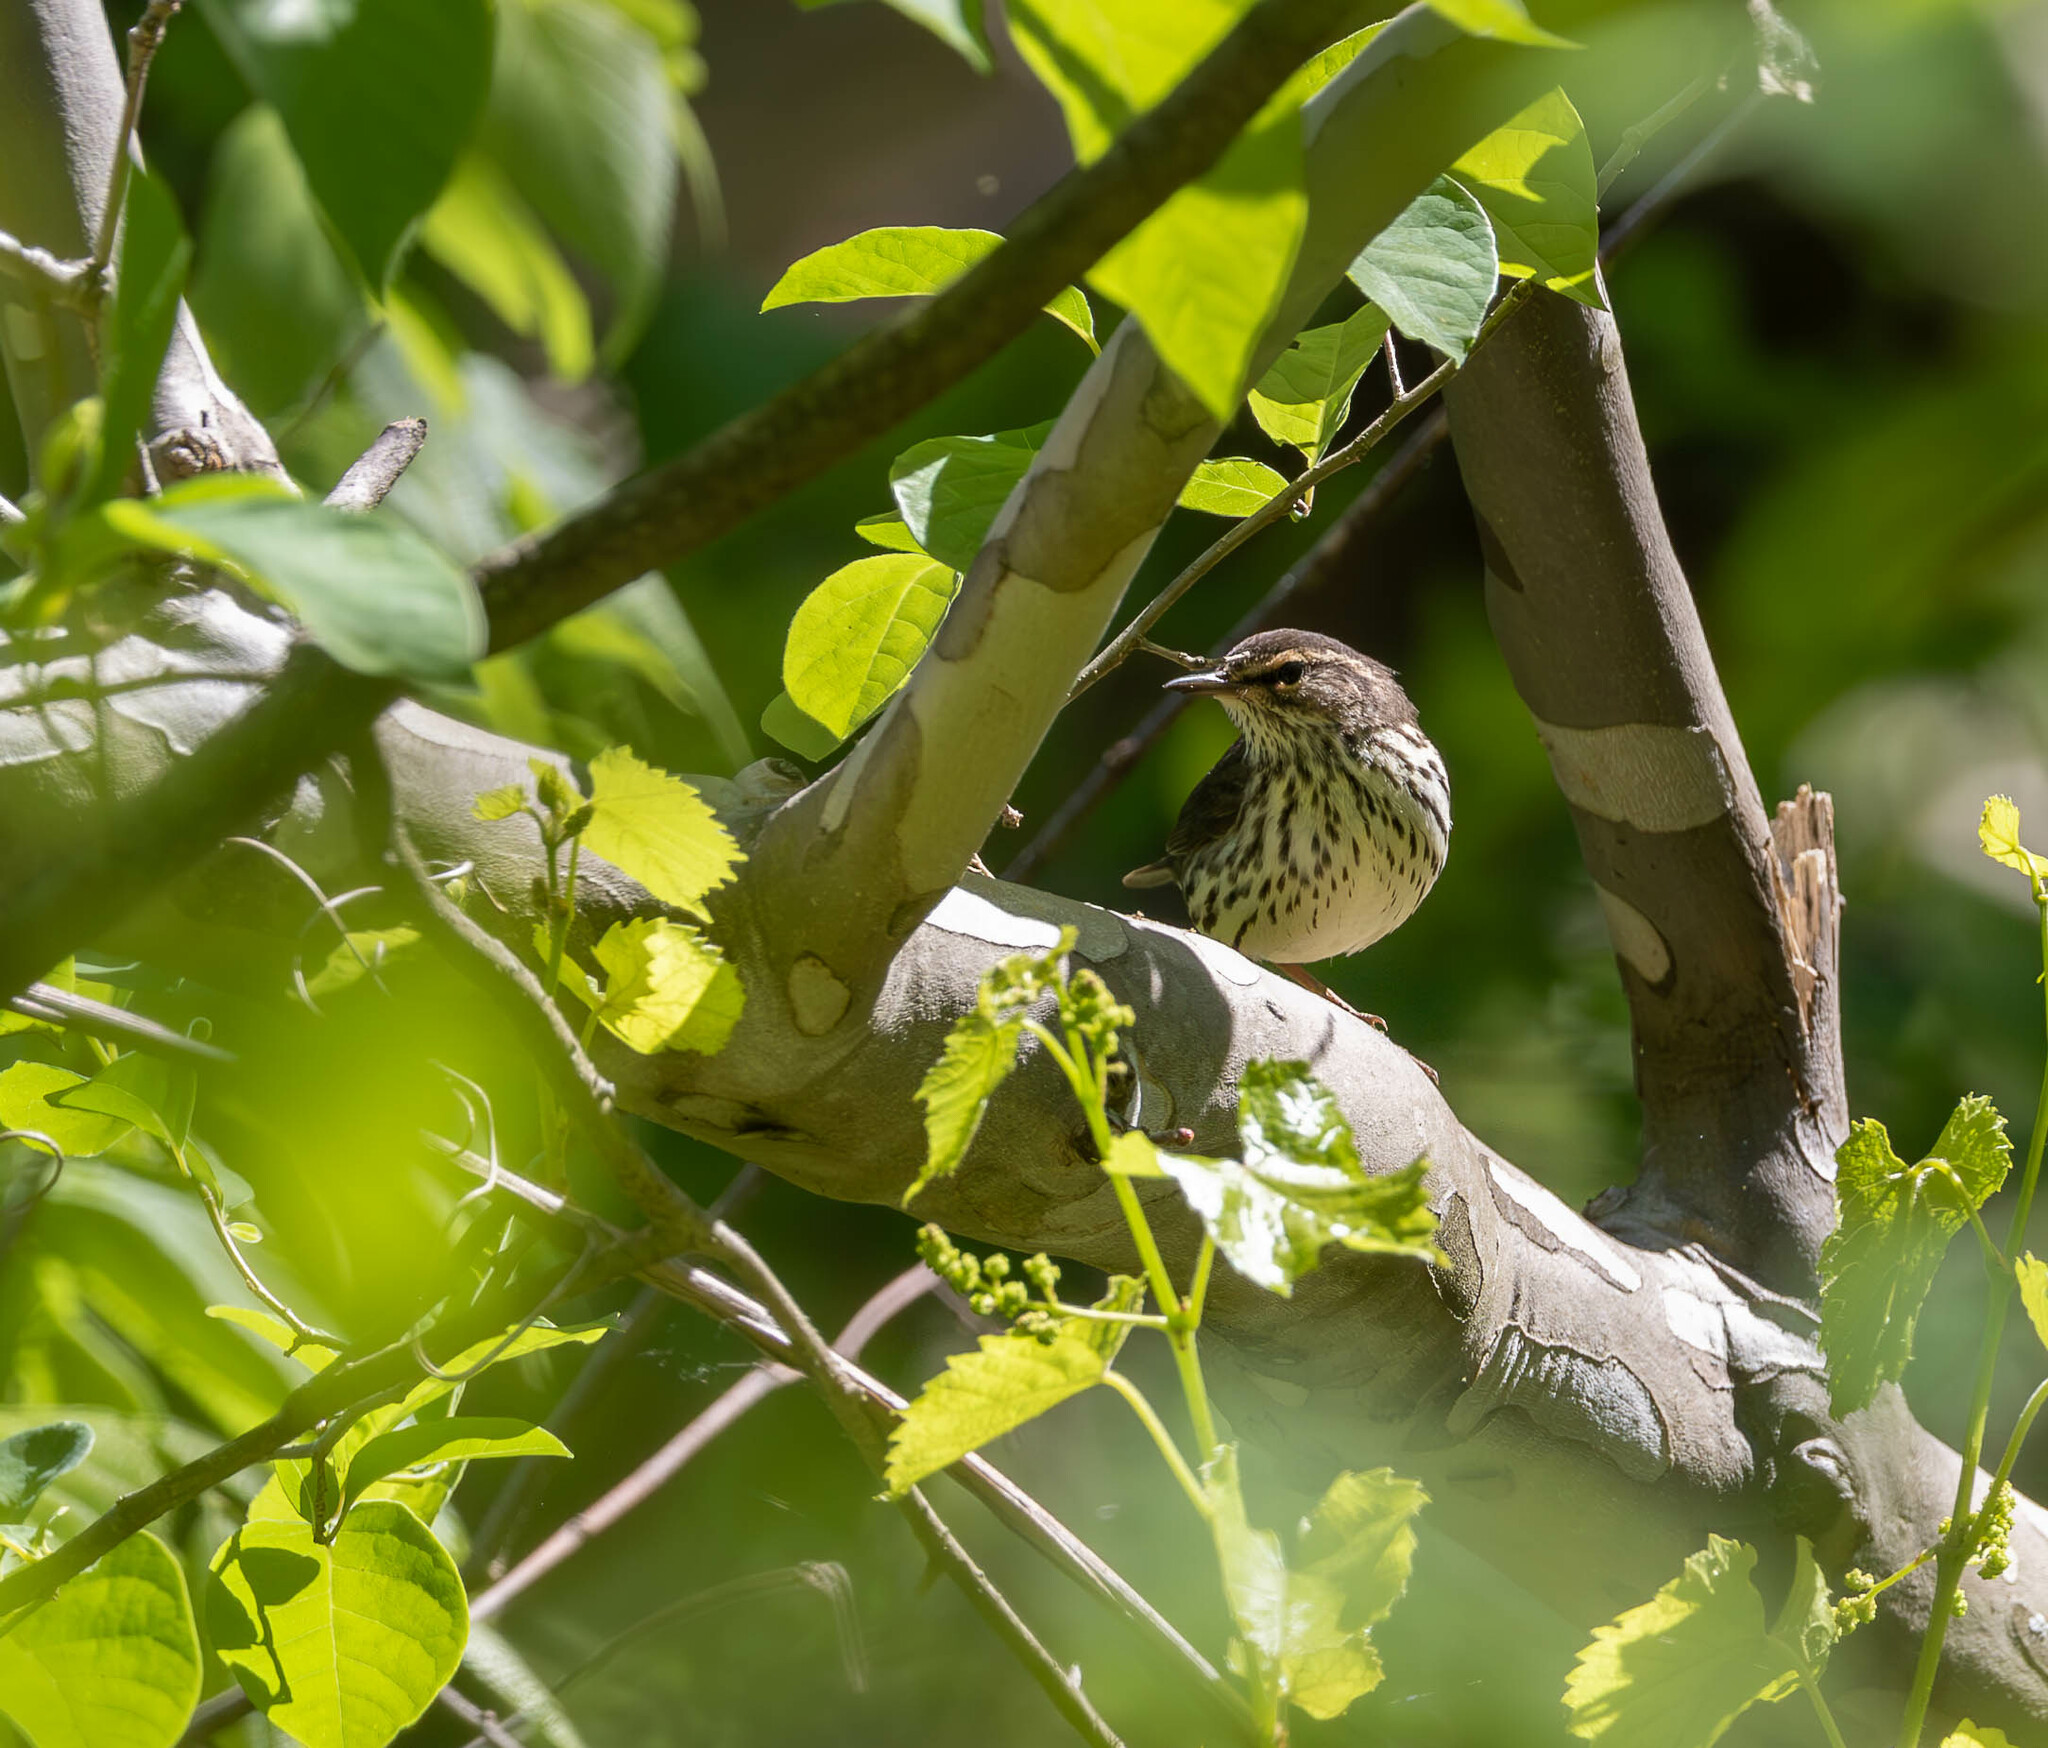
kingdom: Animalia
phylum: Chordata
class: Aves
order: Passeriformes
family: Parulidae
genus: Parkesia
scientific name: Parkesia noveboracensis
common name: Northern waterthrush
